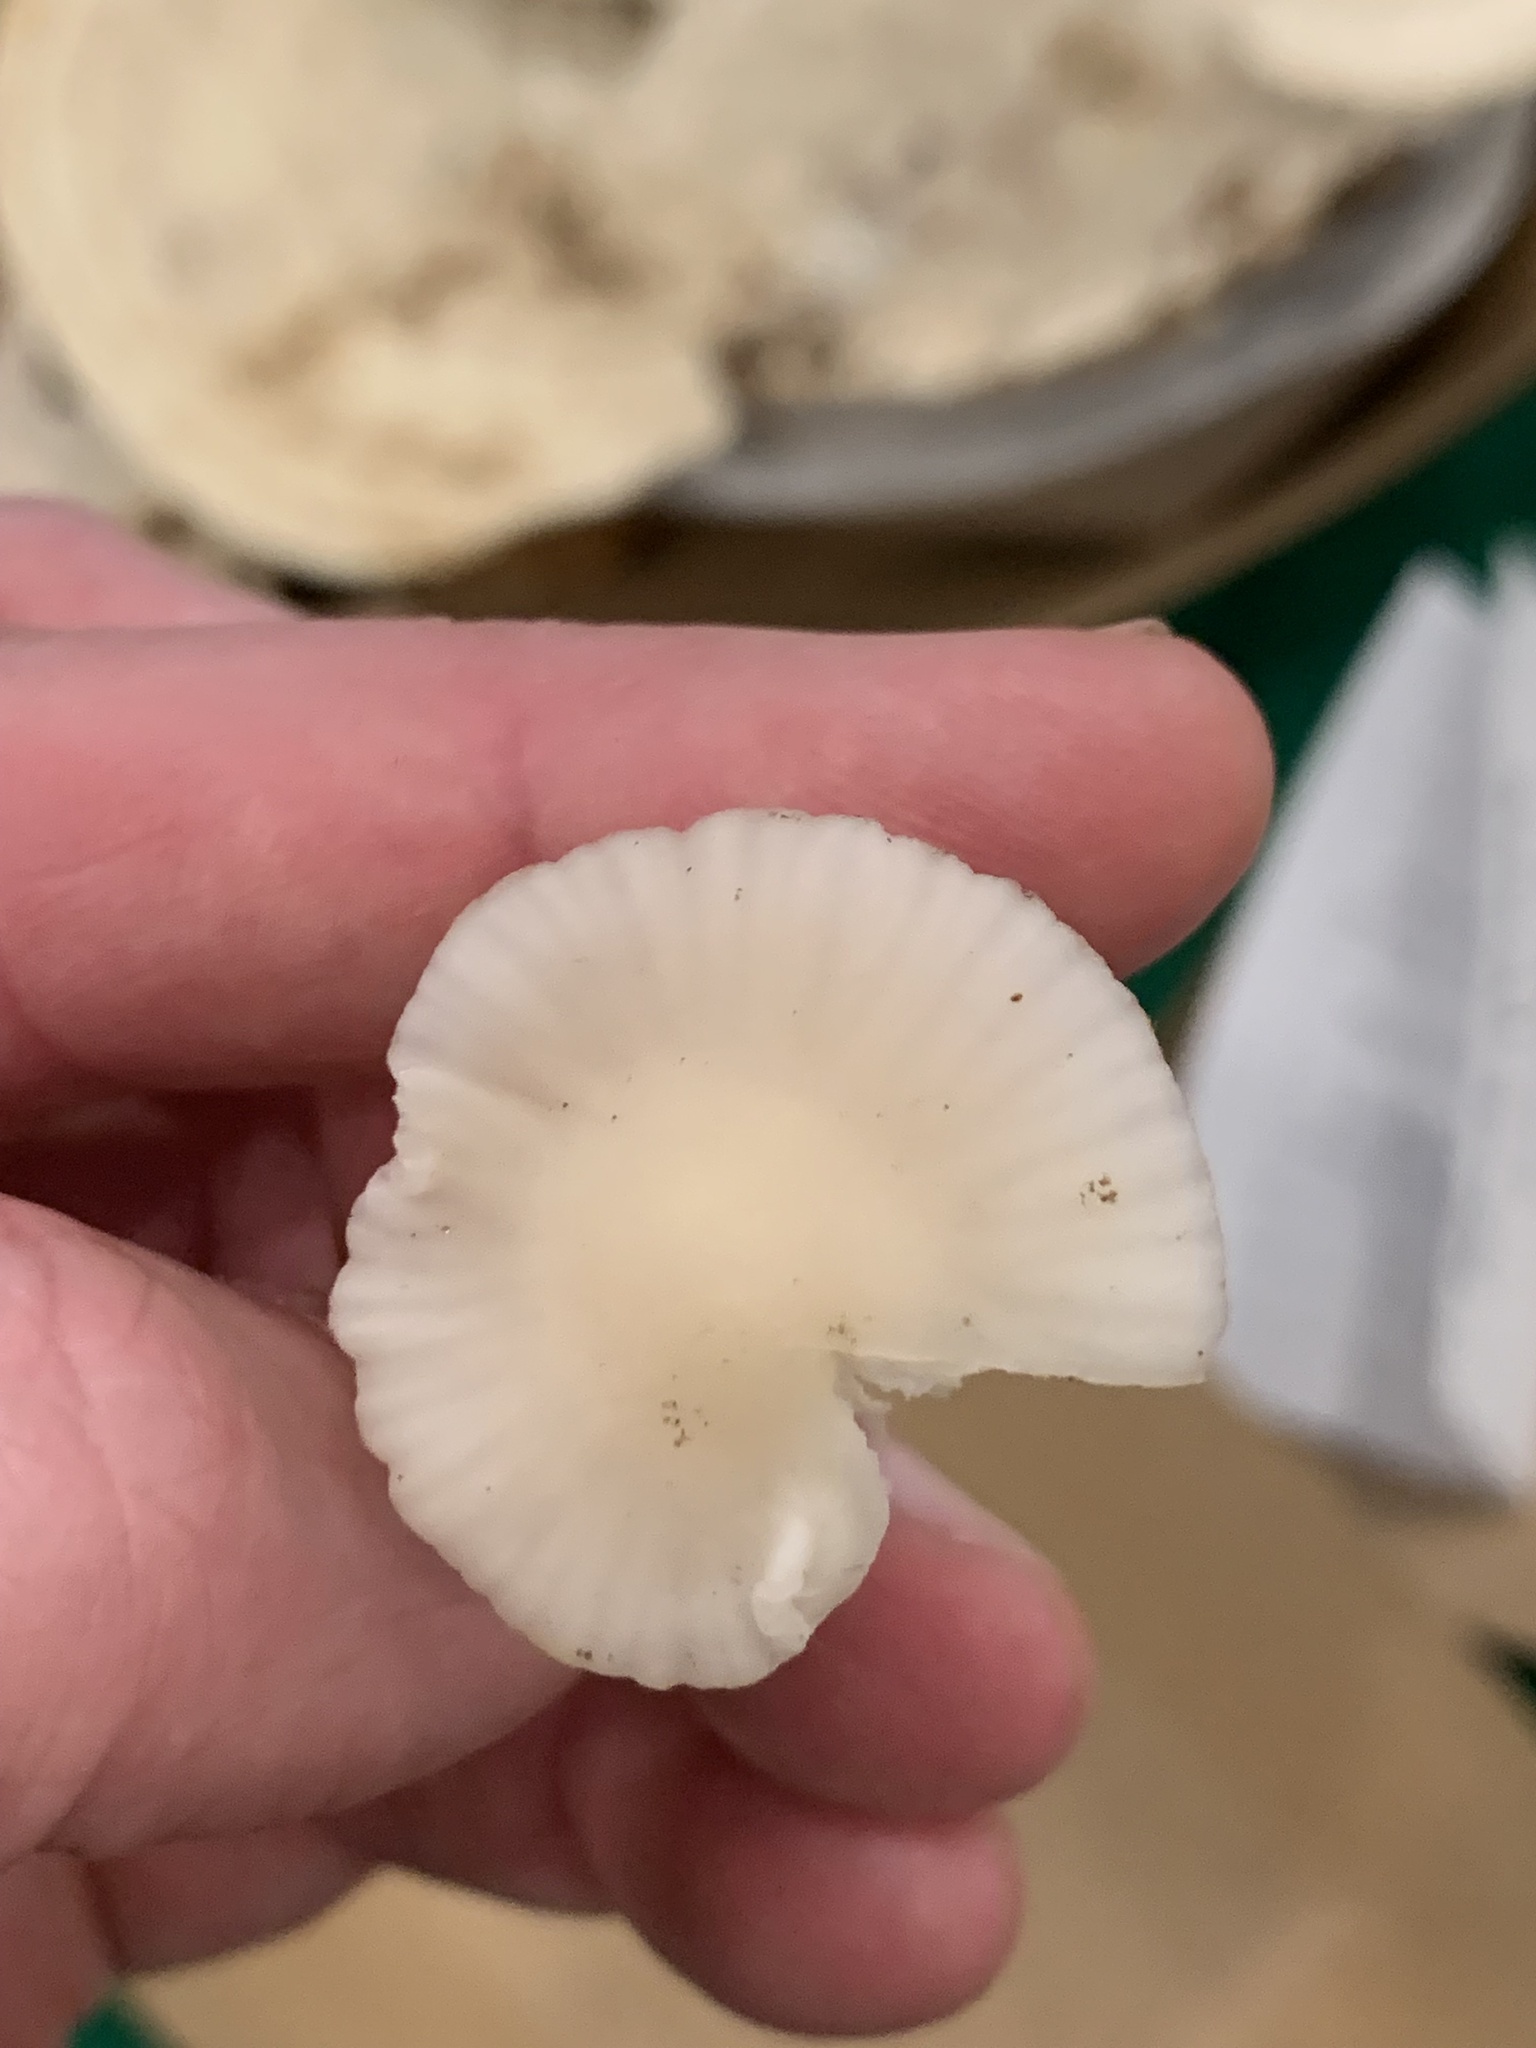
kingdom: Fungi
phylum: Basidiomycota
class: Agaricomycetes
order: Agaricales
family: Hygrophoraceae
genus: Cuphophyllus
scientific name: Cuphophyllus virgineus
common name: Snowy waxcap
